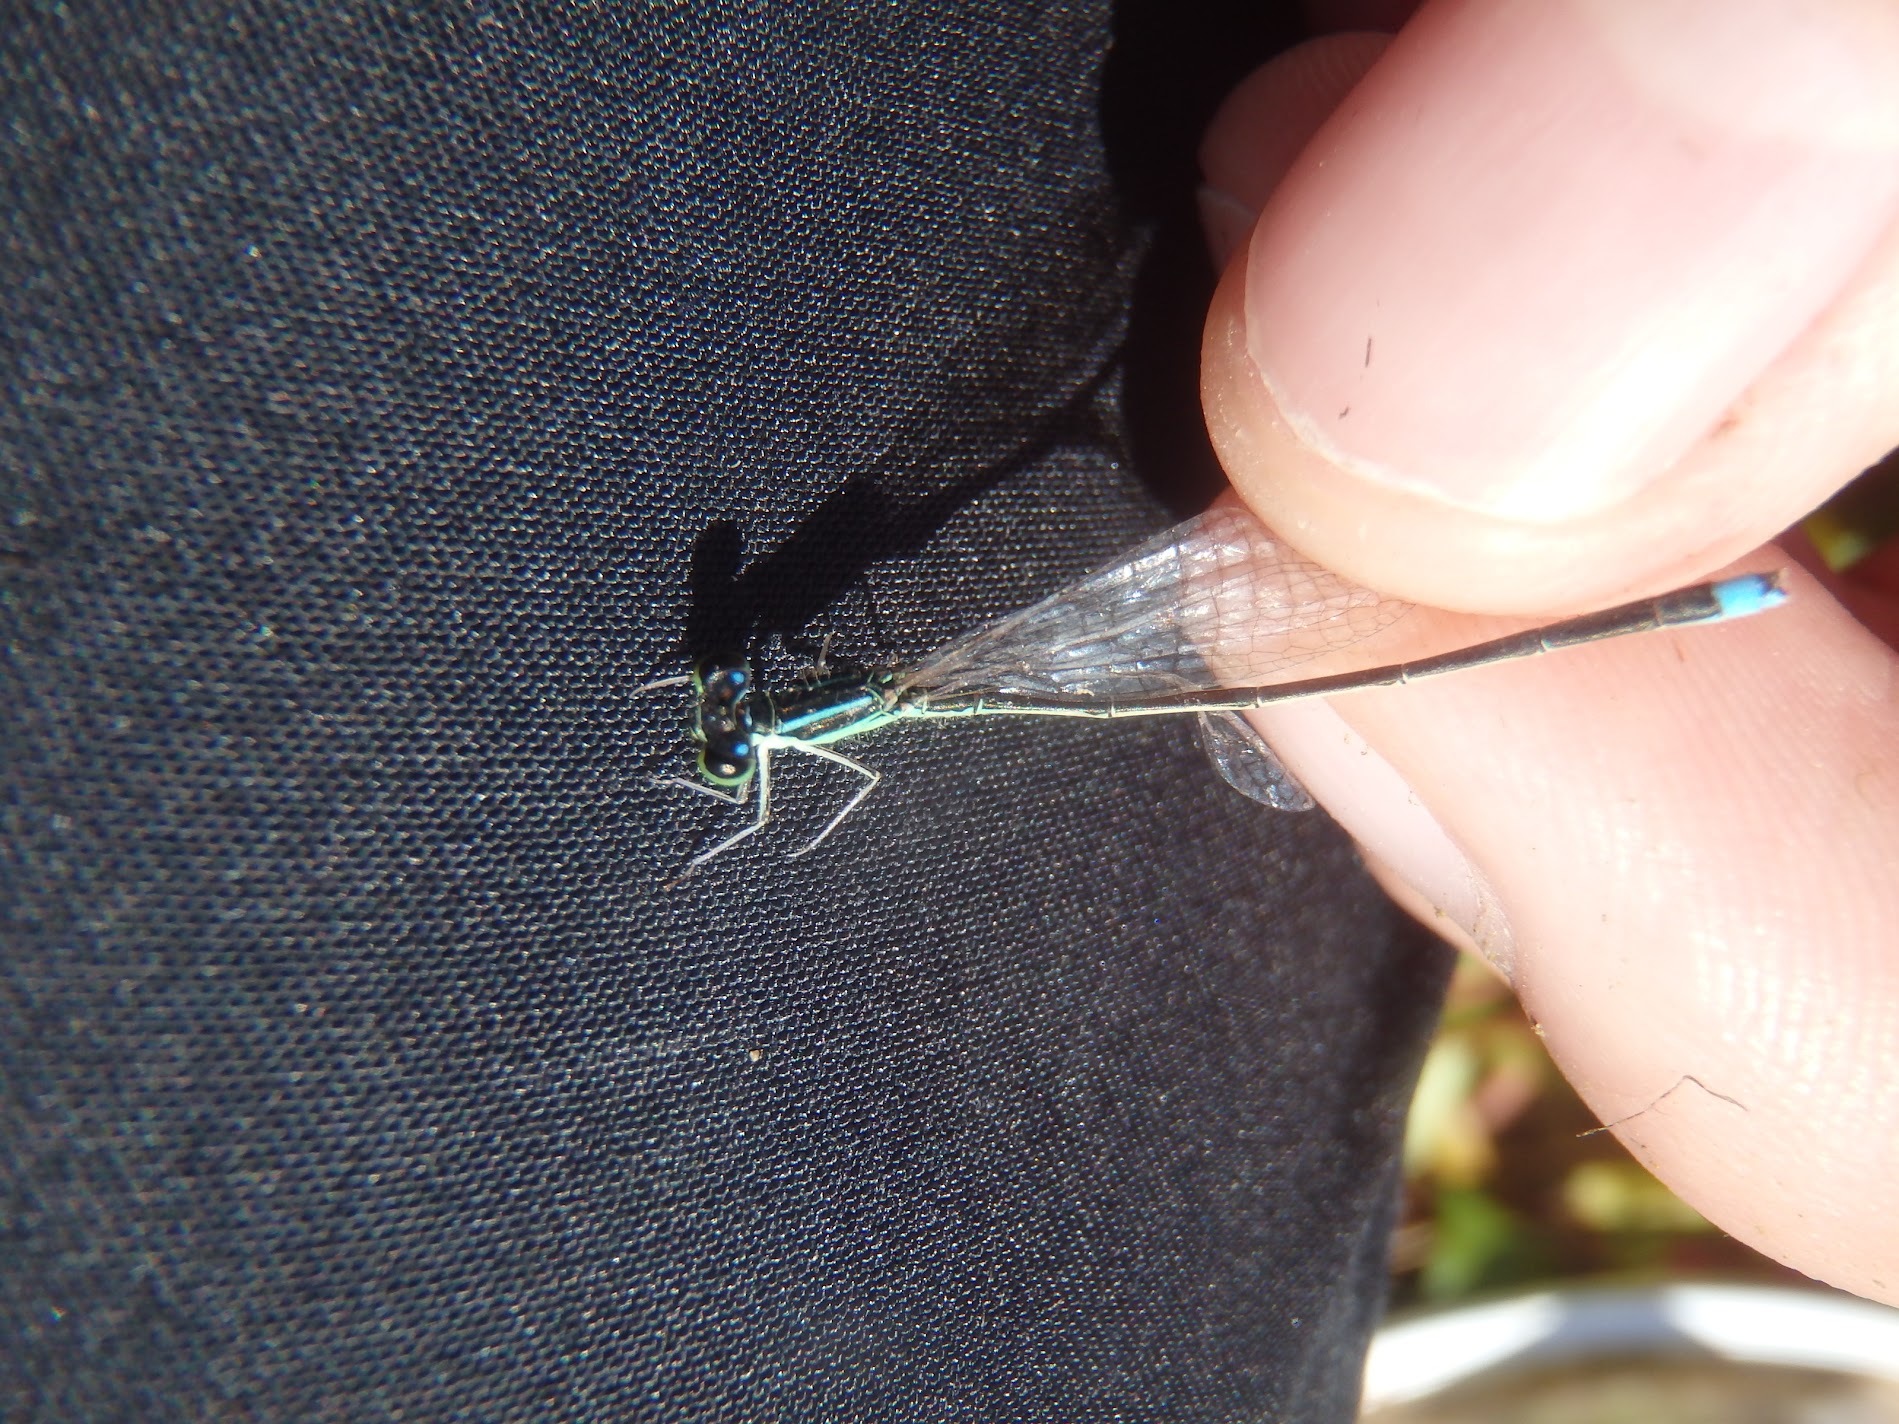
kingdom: Animalia
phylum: Arthropoda
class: Insecta
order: Odonata
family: Coenagrionidae
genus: Ischnura
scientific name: Ischnura asiatica
